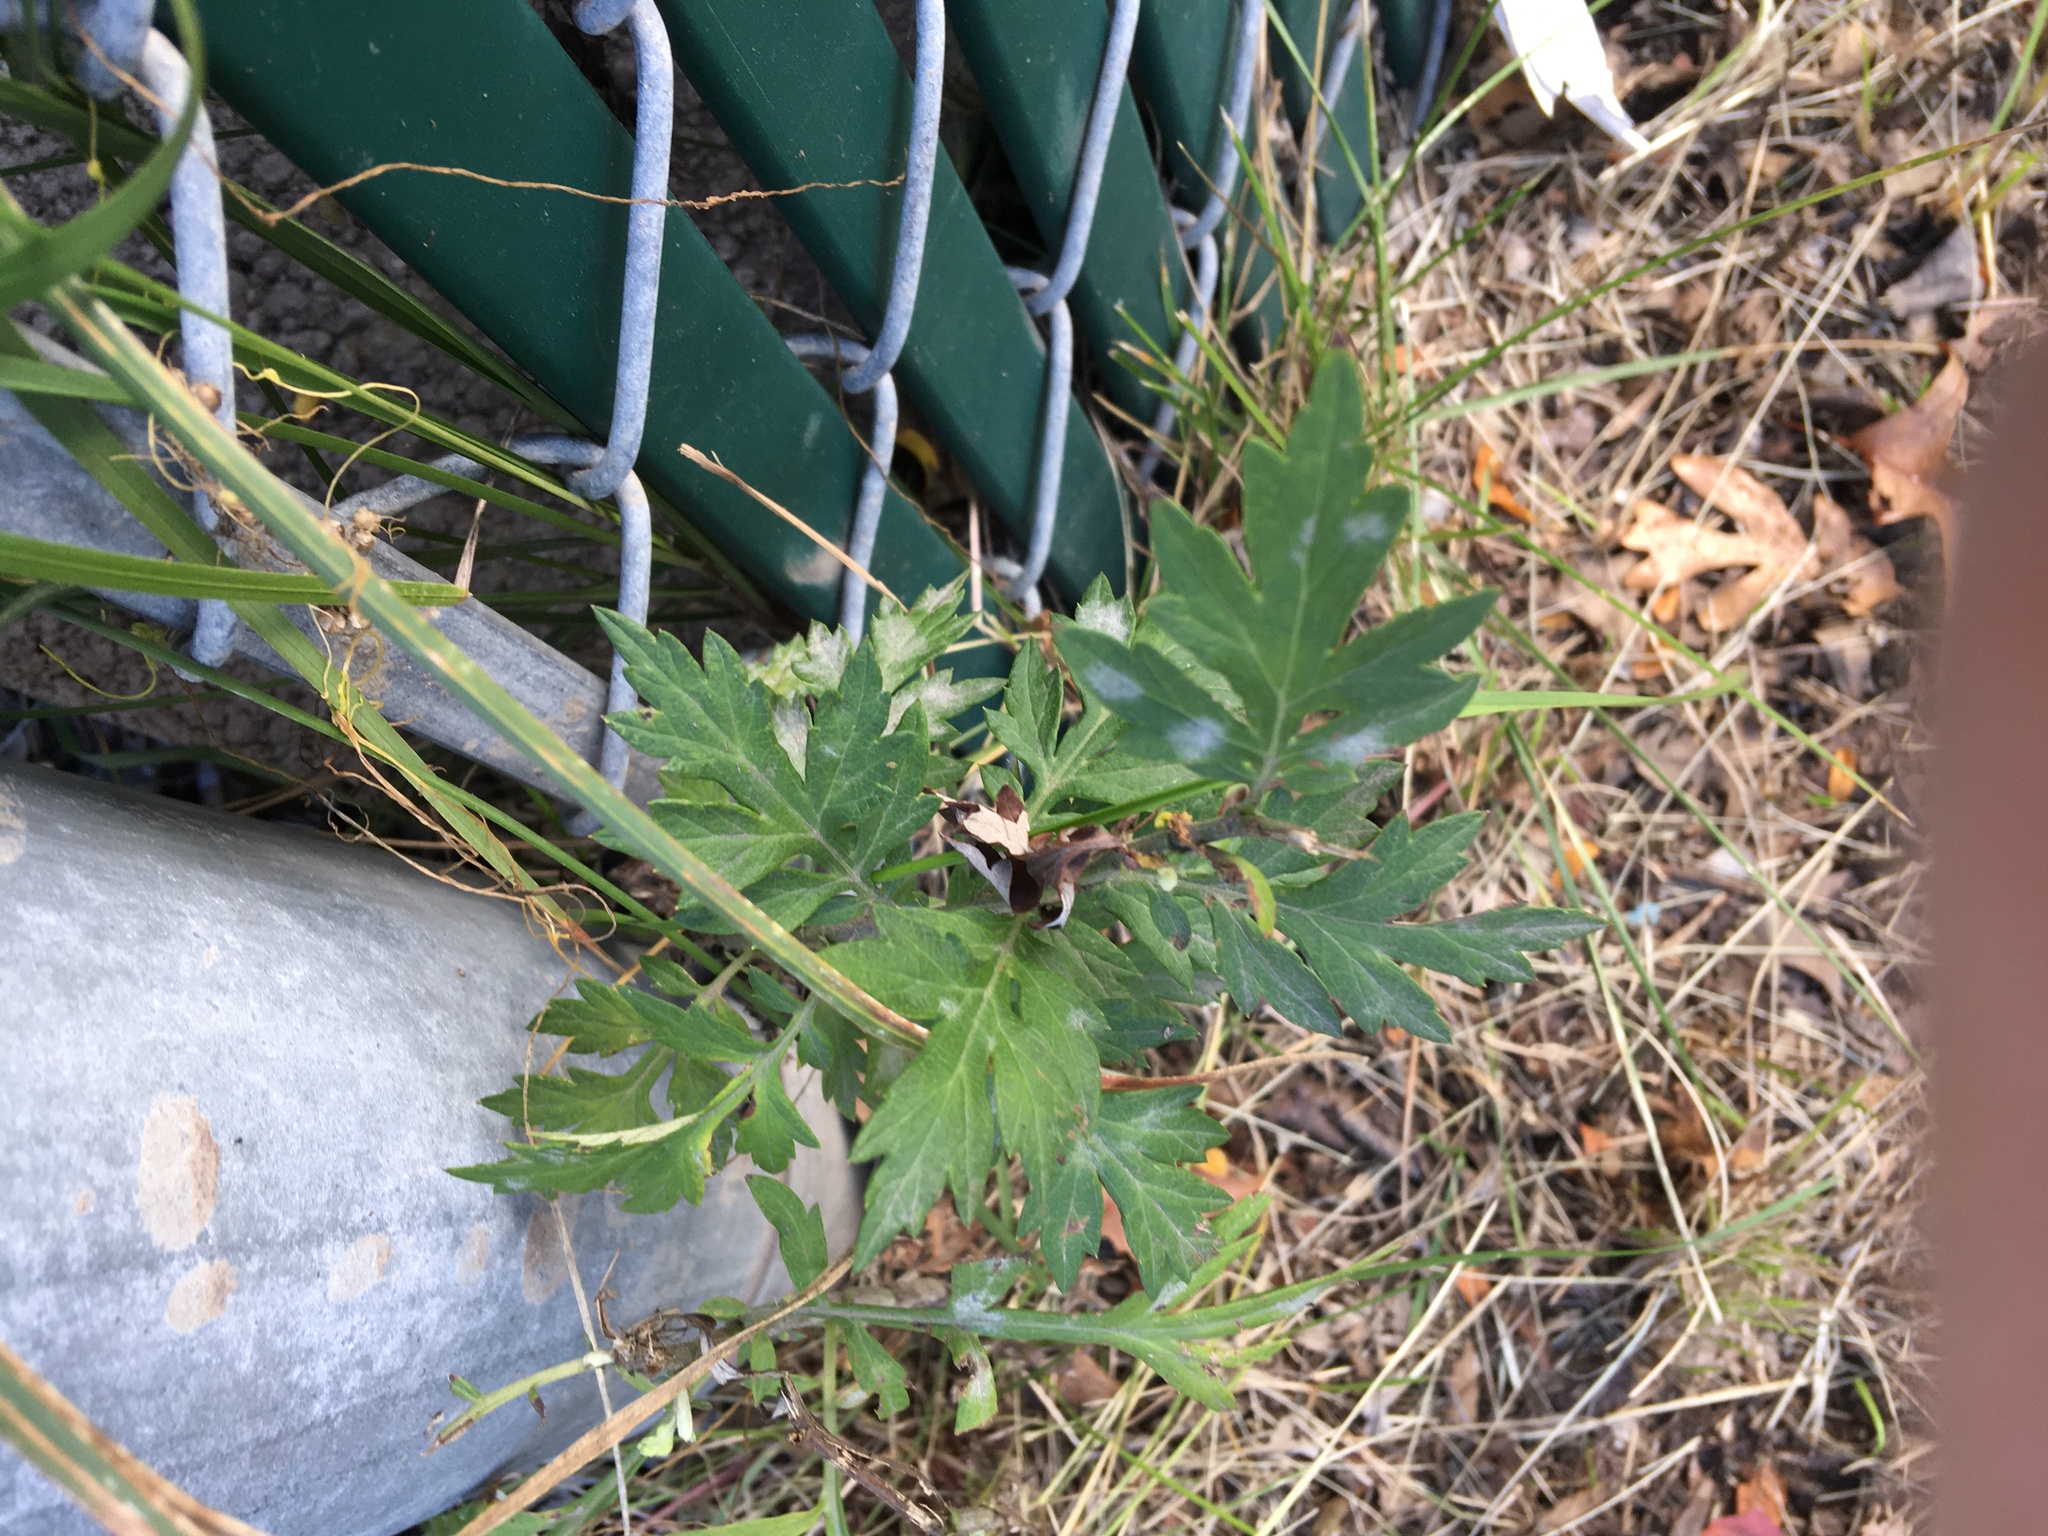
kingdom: Plantae
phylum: Tracheophyta
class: Magnoliopsida
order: Asterales
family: Asteraceae
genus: Artemisia
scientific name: Artemisia vulgaris
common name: Mugwort
